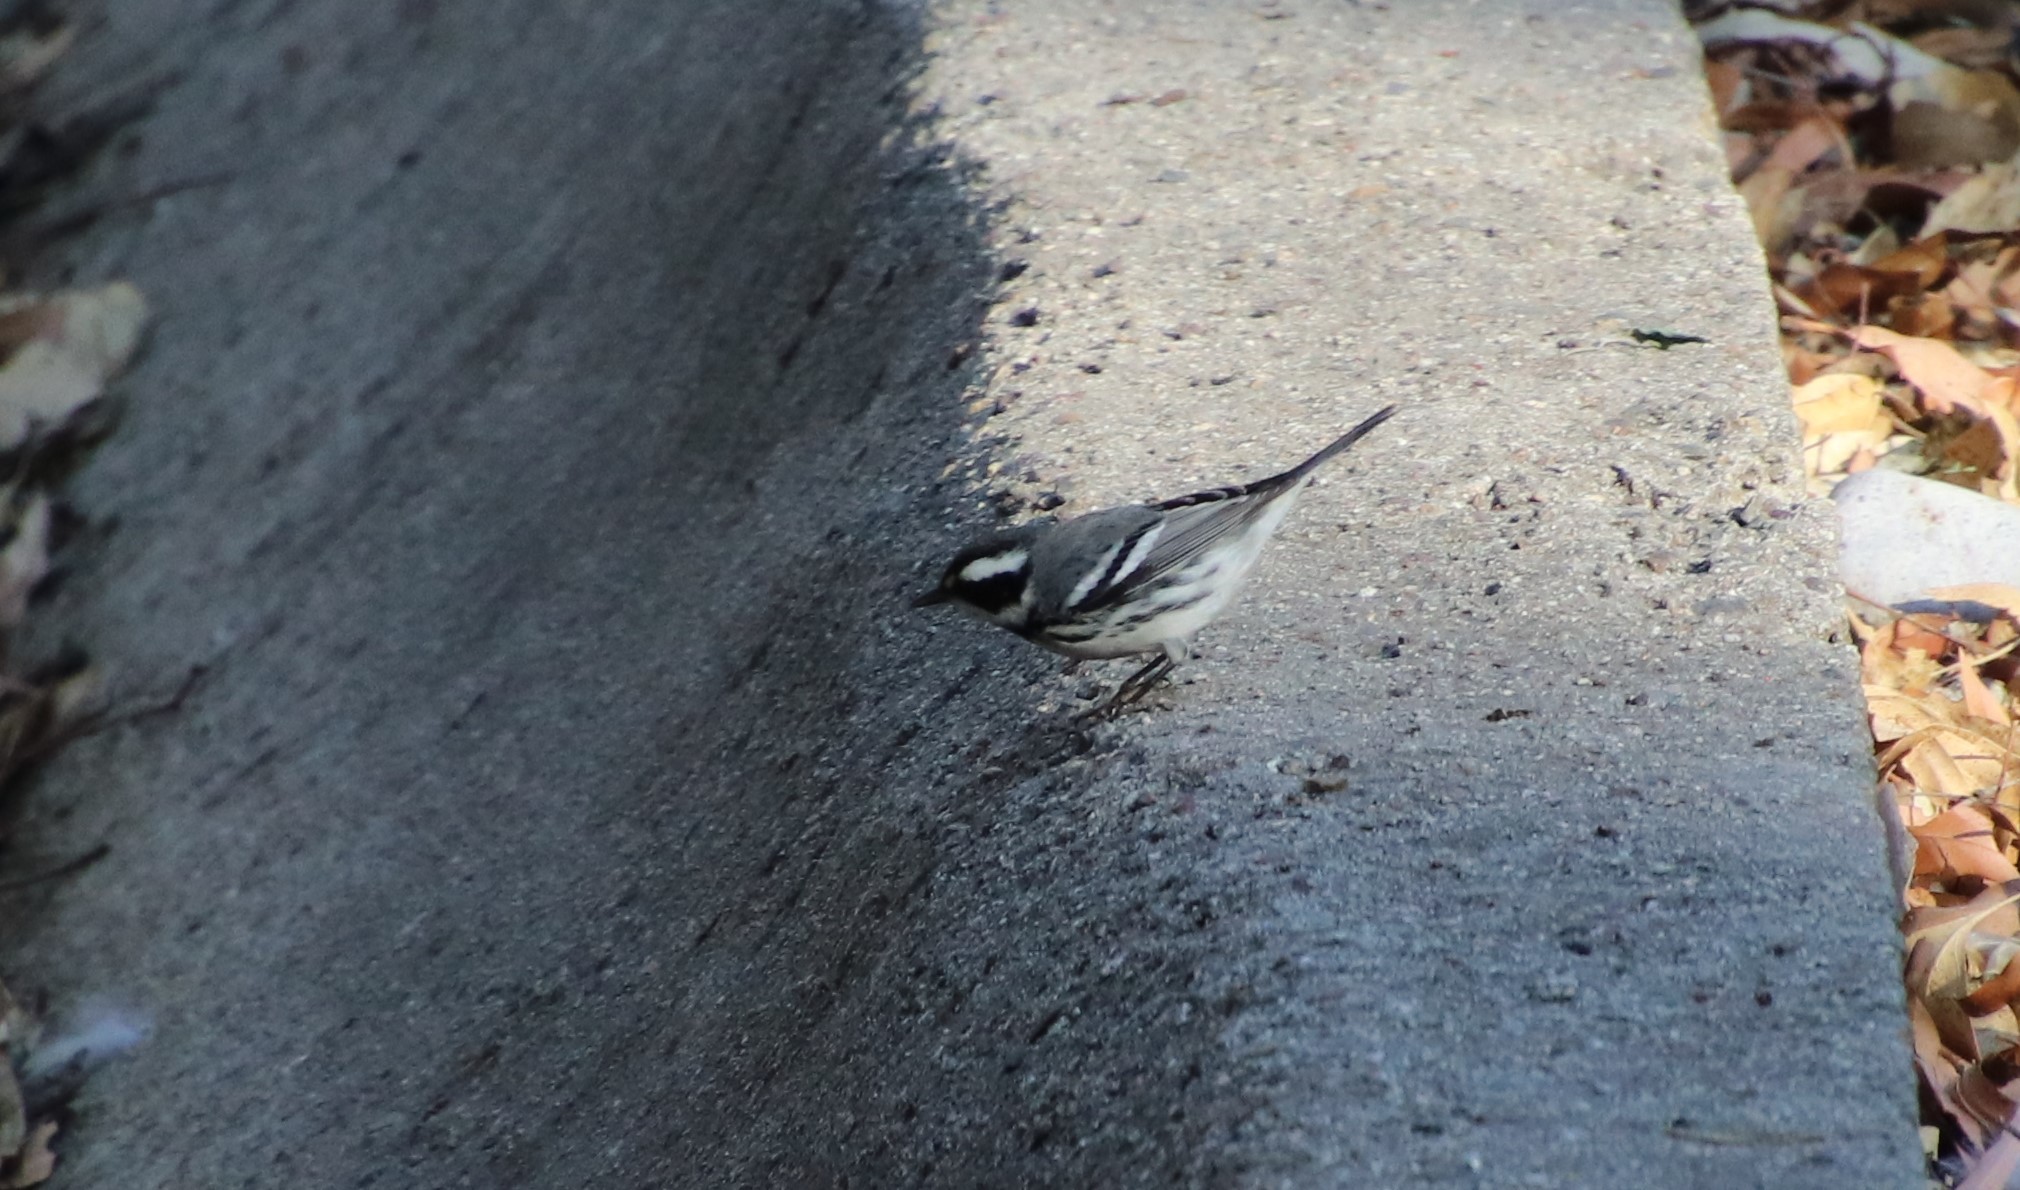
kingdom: Animalia
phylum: Chordata
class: Aves
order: Passeriformes
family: Parulidae
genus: Setophaga
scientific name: Setophaga nigrescens
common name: Black-throated gray warbler
